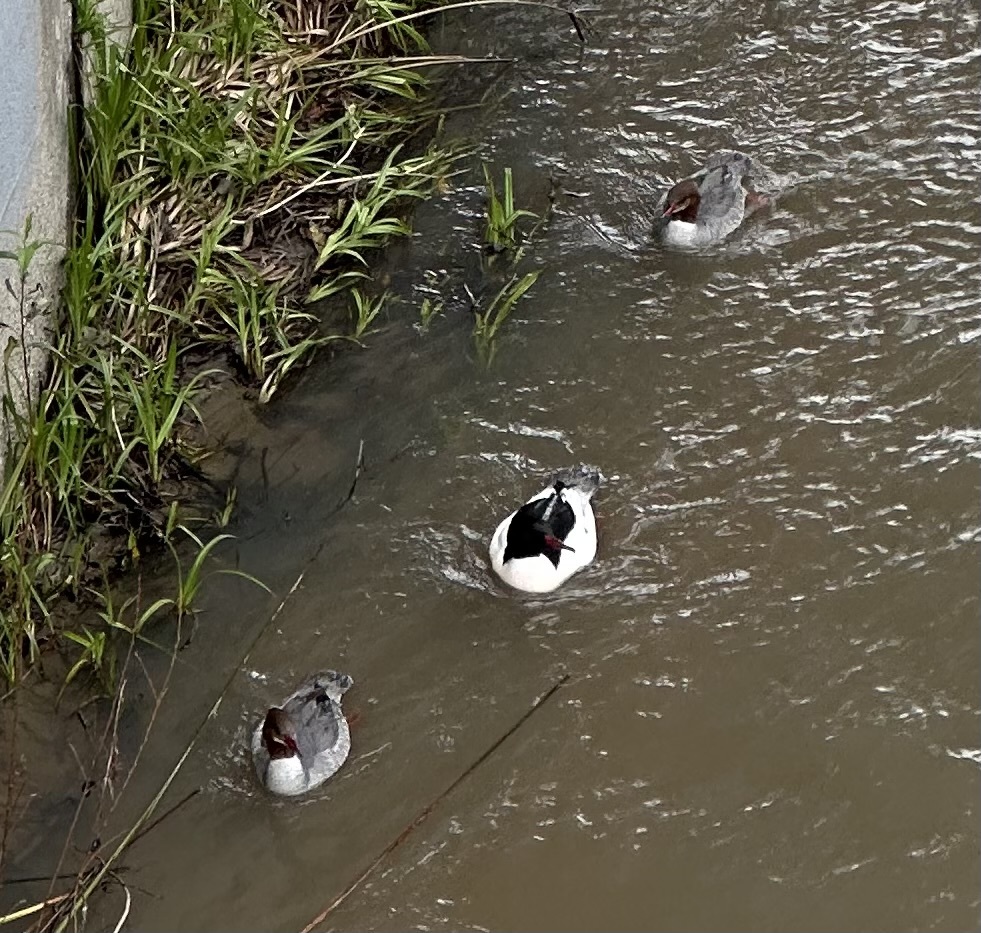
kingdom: Animalia
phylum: Chordata
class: Aves
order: Anseriformes
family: Anatidae
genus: Mergus
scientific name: Mergus merganser
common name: Common merganser
